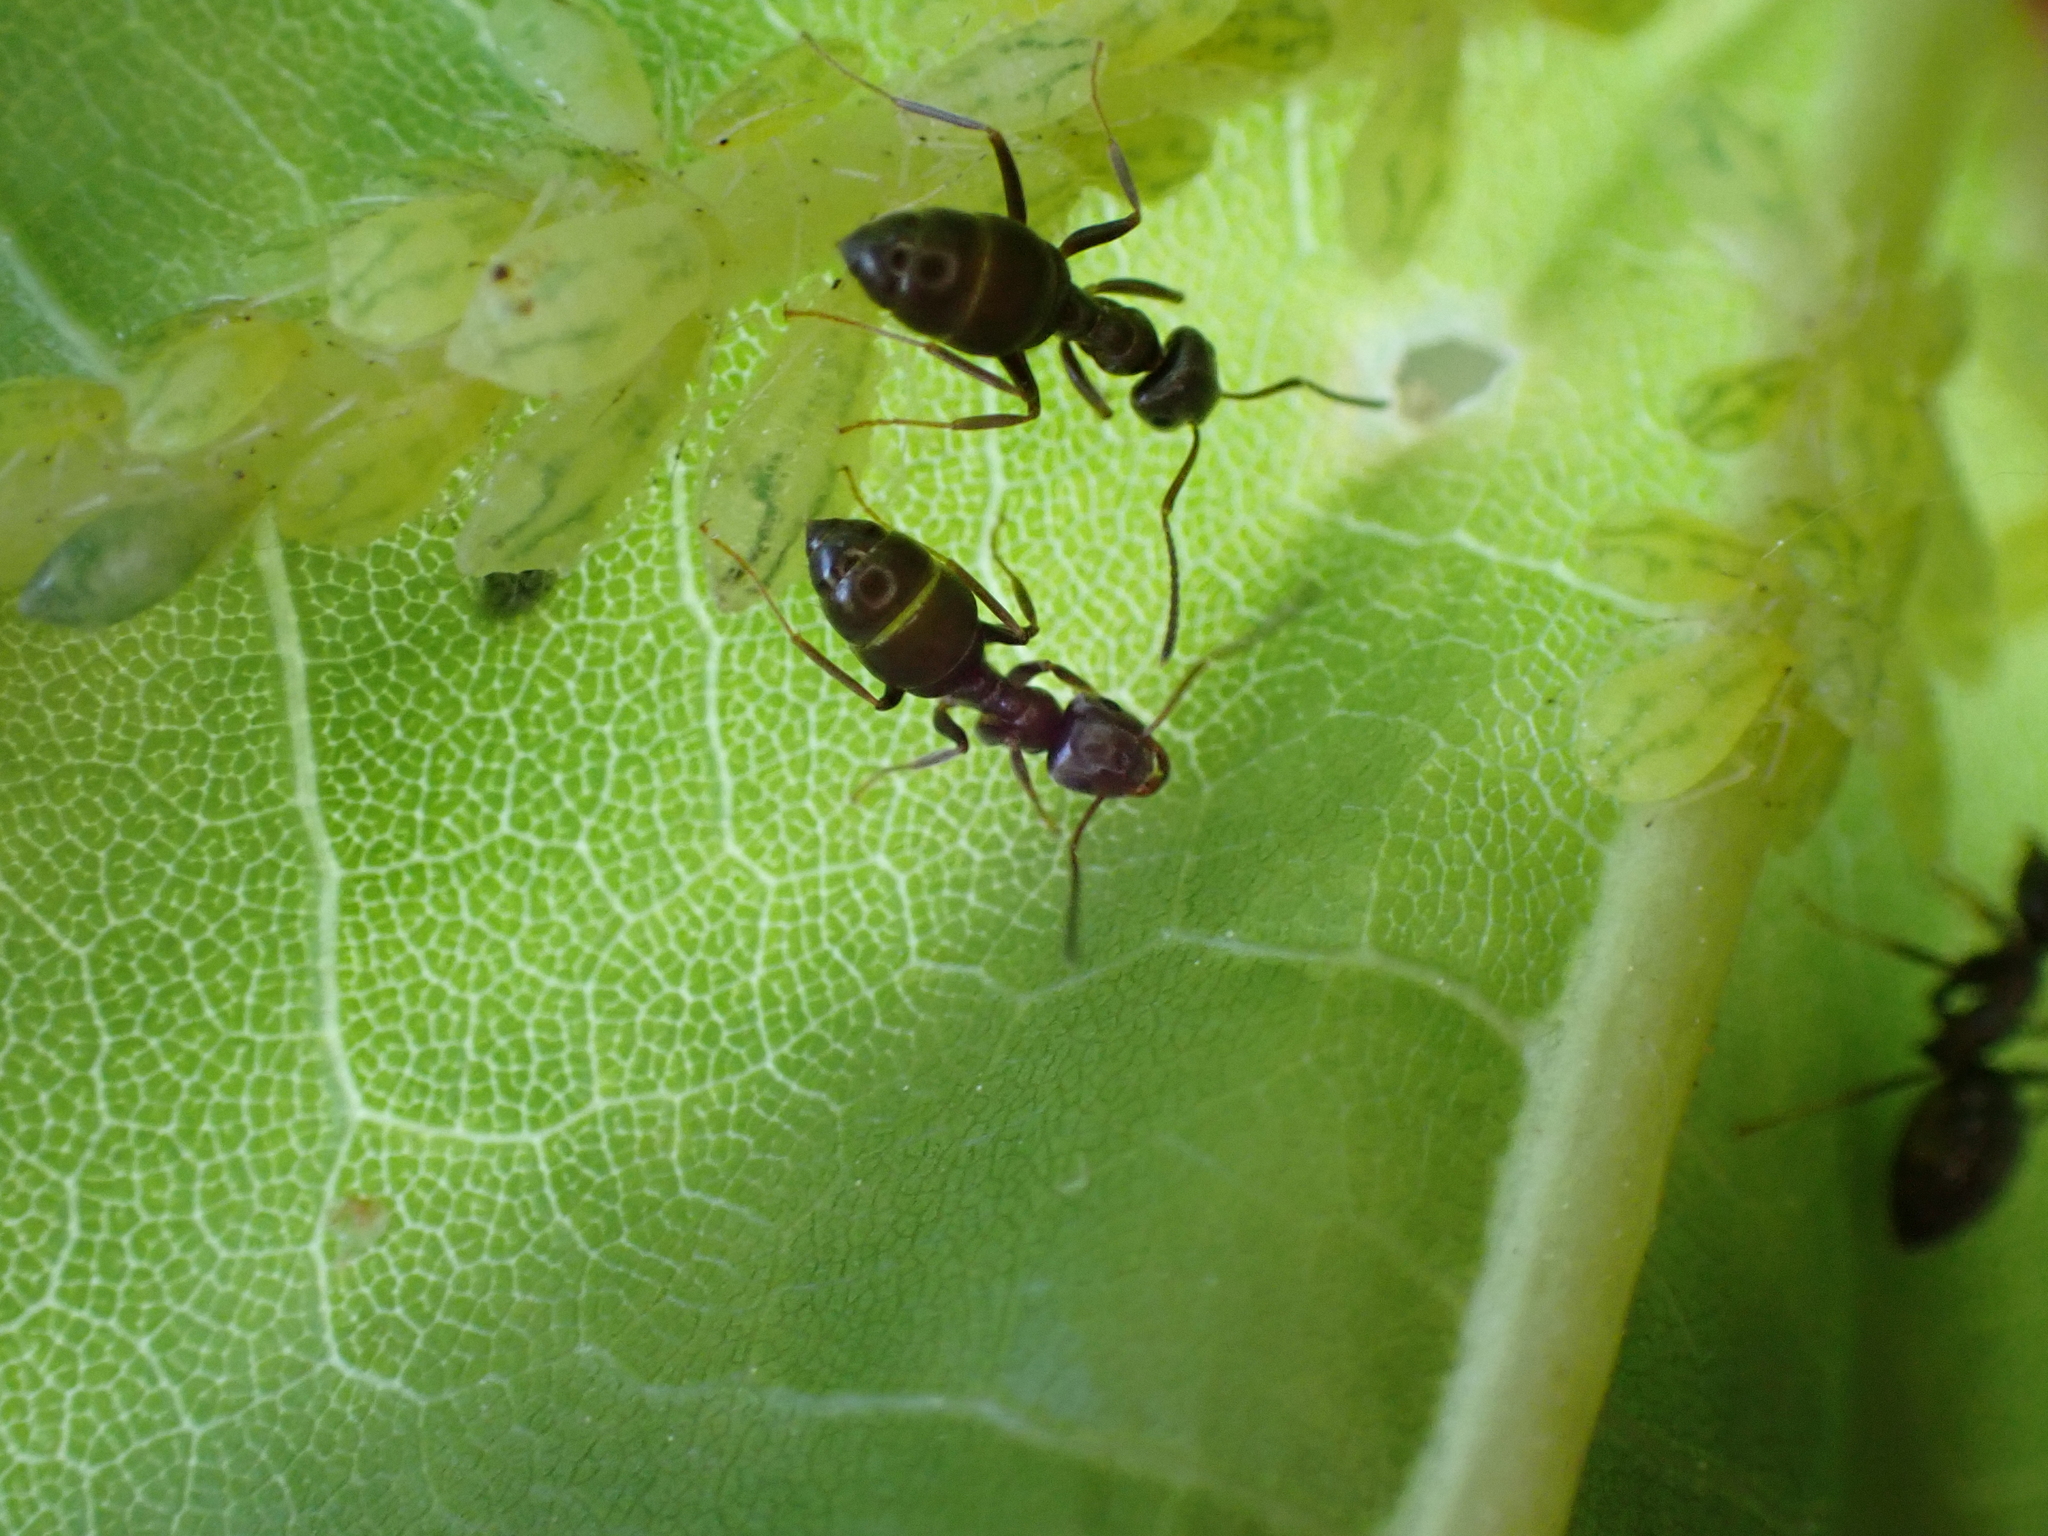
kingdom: Animalia
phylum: Arthropoda
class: Insecta
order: Hymenoptera
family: Formicidae
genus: Lasius
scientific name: Lasius
